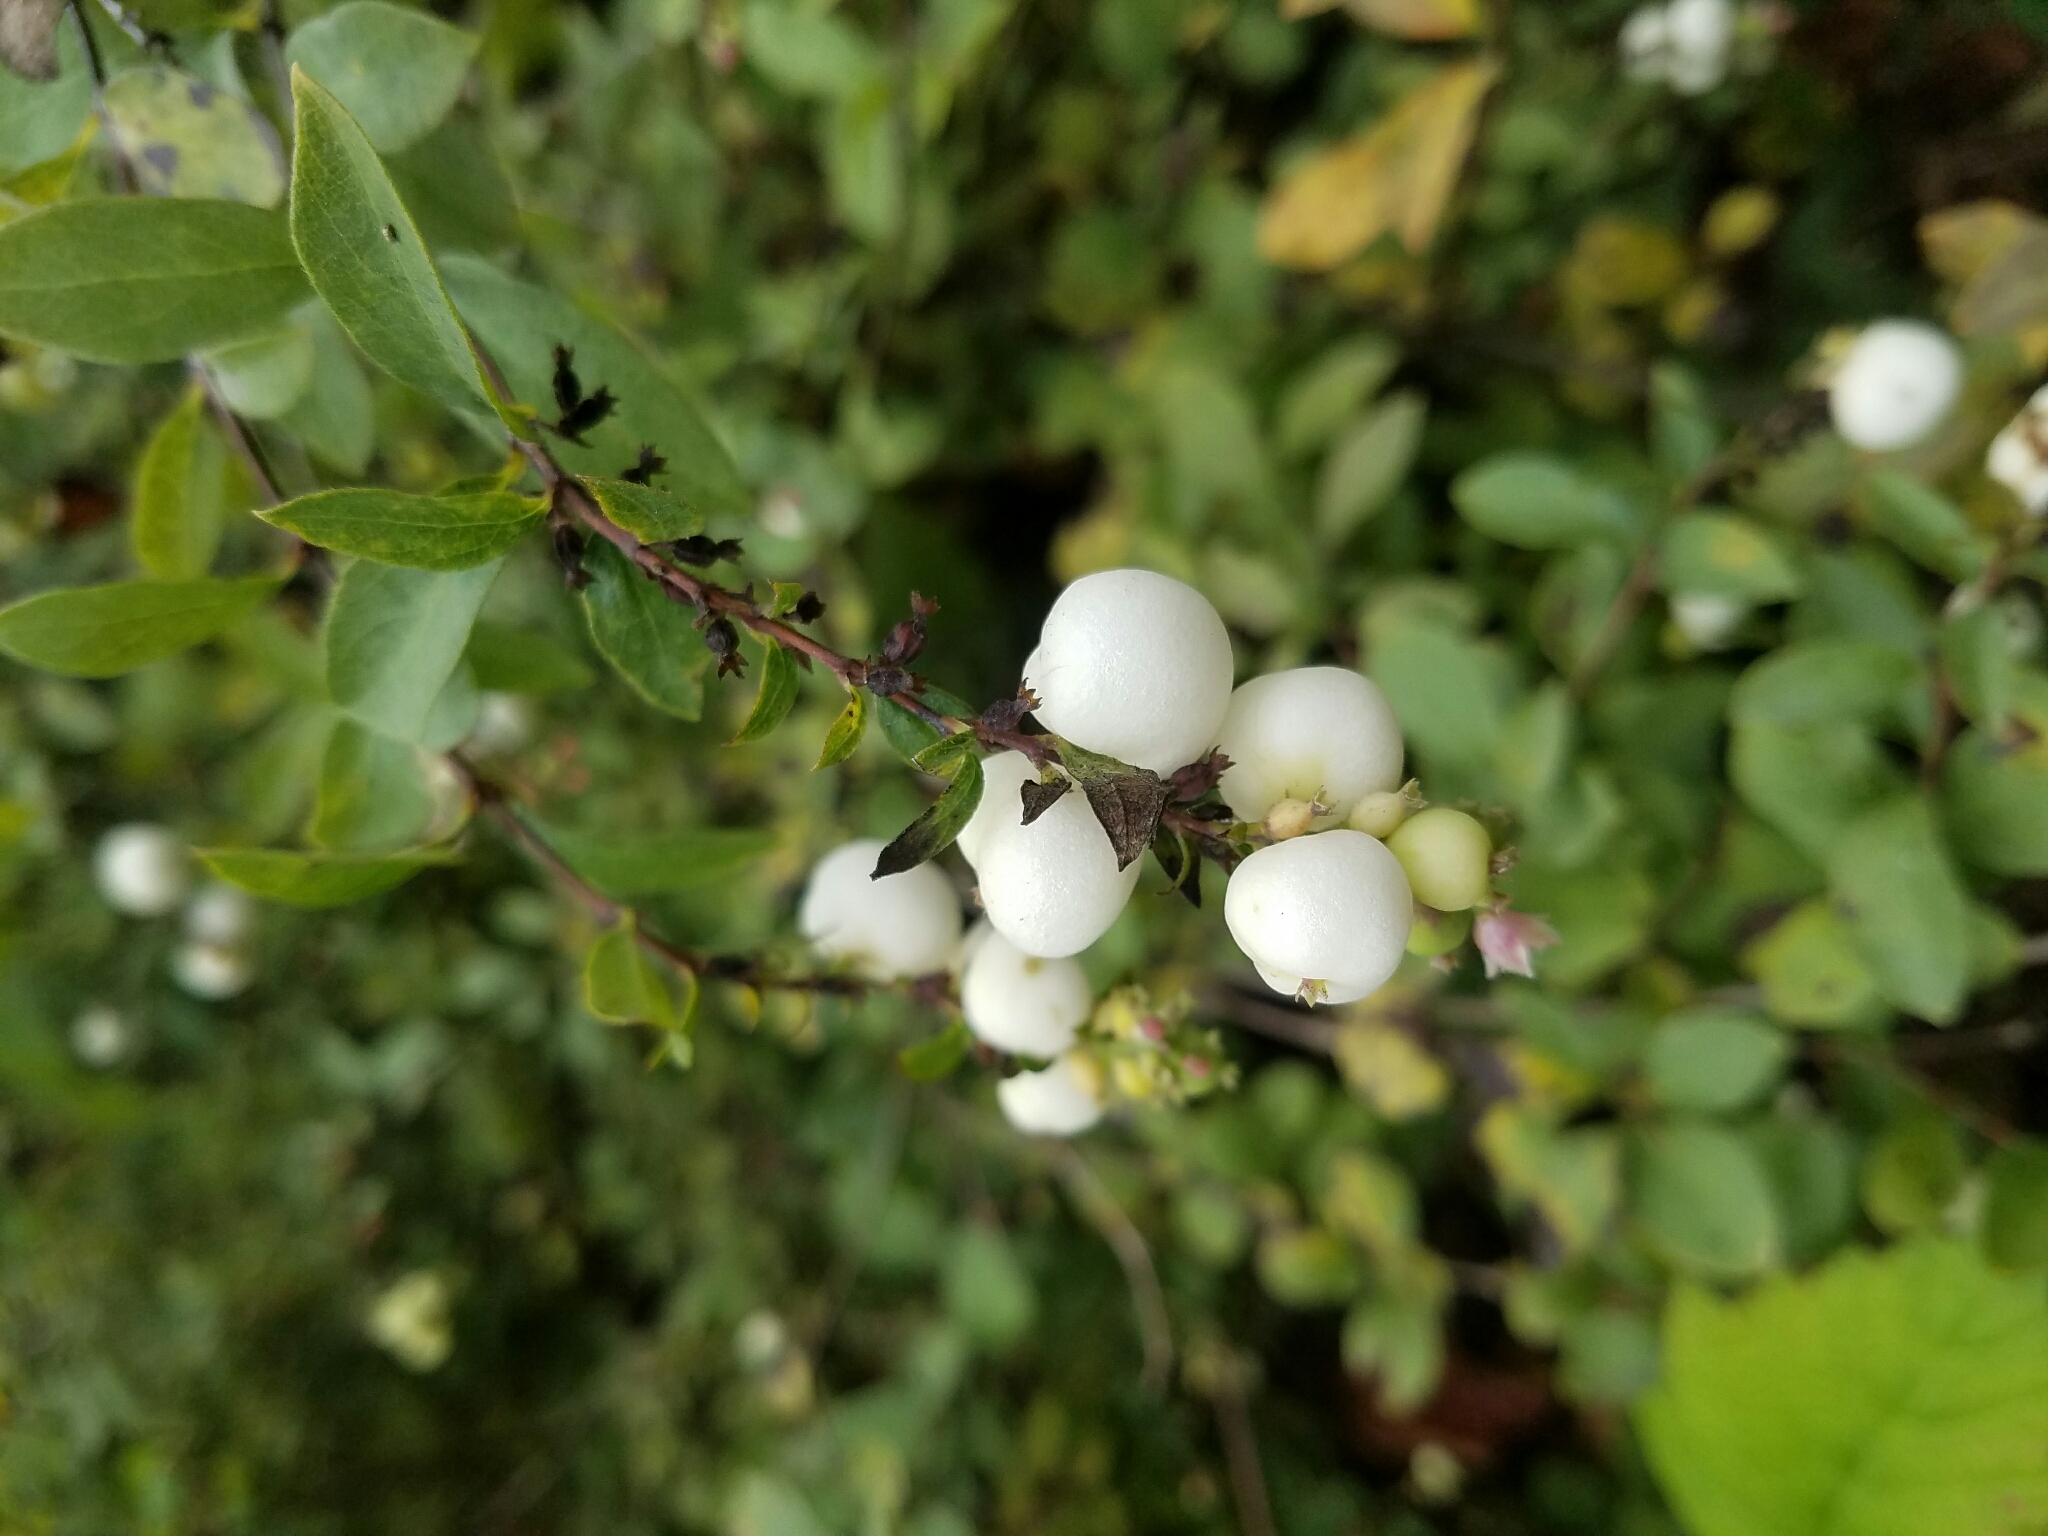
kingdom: Plantae
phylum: Tracheophyta
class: Magnoliopsida
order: Dipsacales
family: Caprifoliaceae
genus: Symphoricarpos
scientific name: Symphoricarpos albus
